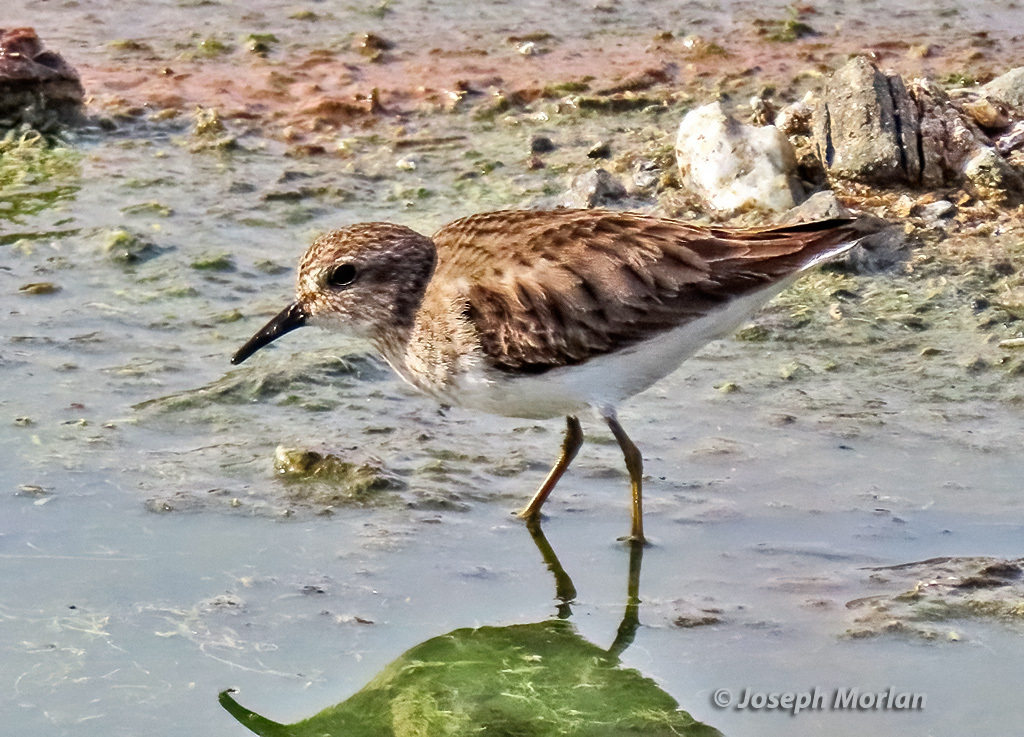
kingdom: Animalia
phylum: Chordata
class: Aves
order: Charadriiformes
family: Scolopacidae
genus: Calidris
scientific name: Calidris minutilla
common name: Least sandpiper
